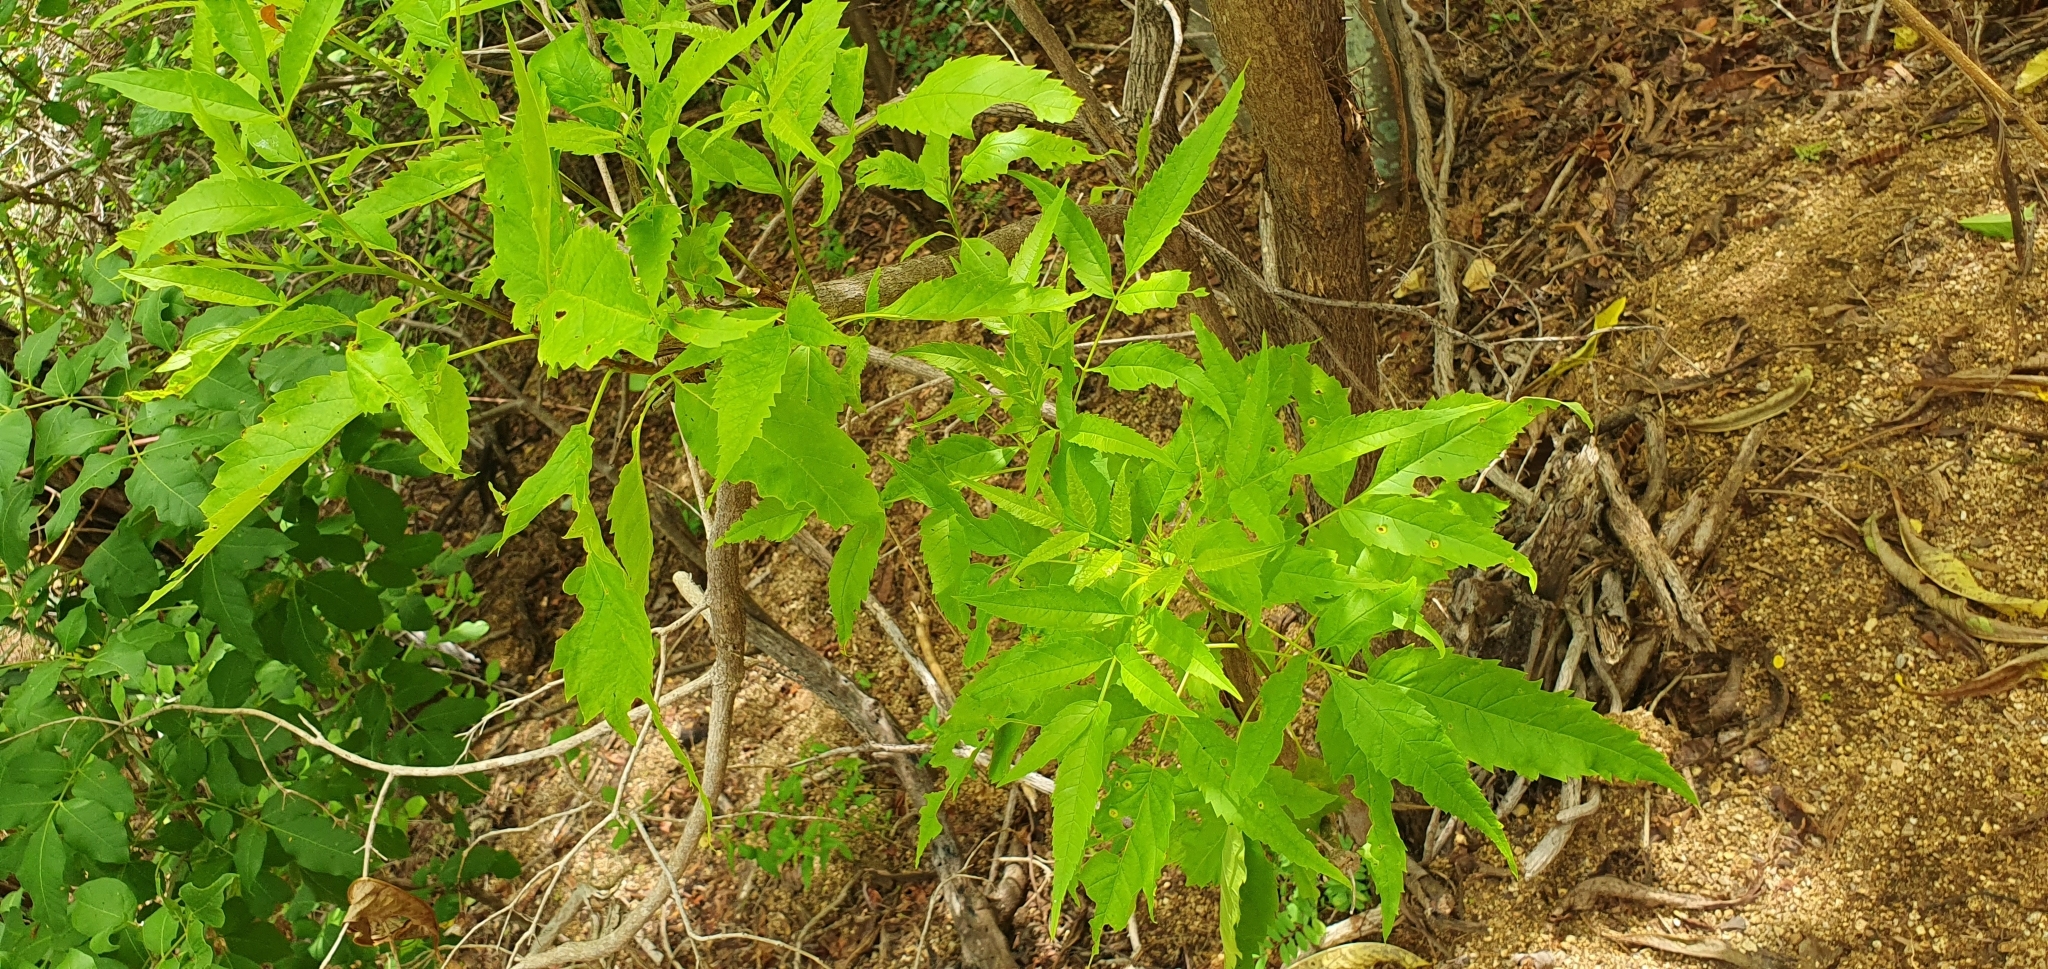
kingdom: Plantae
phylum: Tracheophyta
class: Magnoliopsida
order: Lamiales
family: Bignoniaceae
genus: Tecoma
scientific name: Tecoma stans
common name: Yellow trumpetbush
